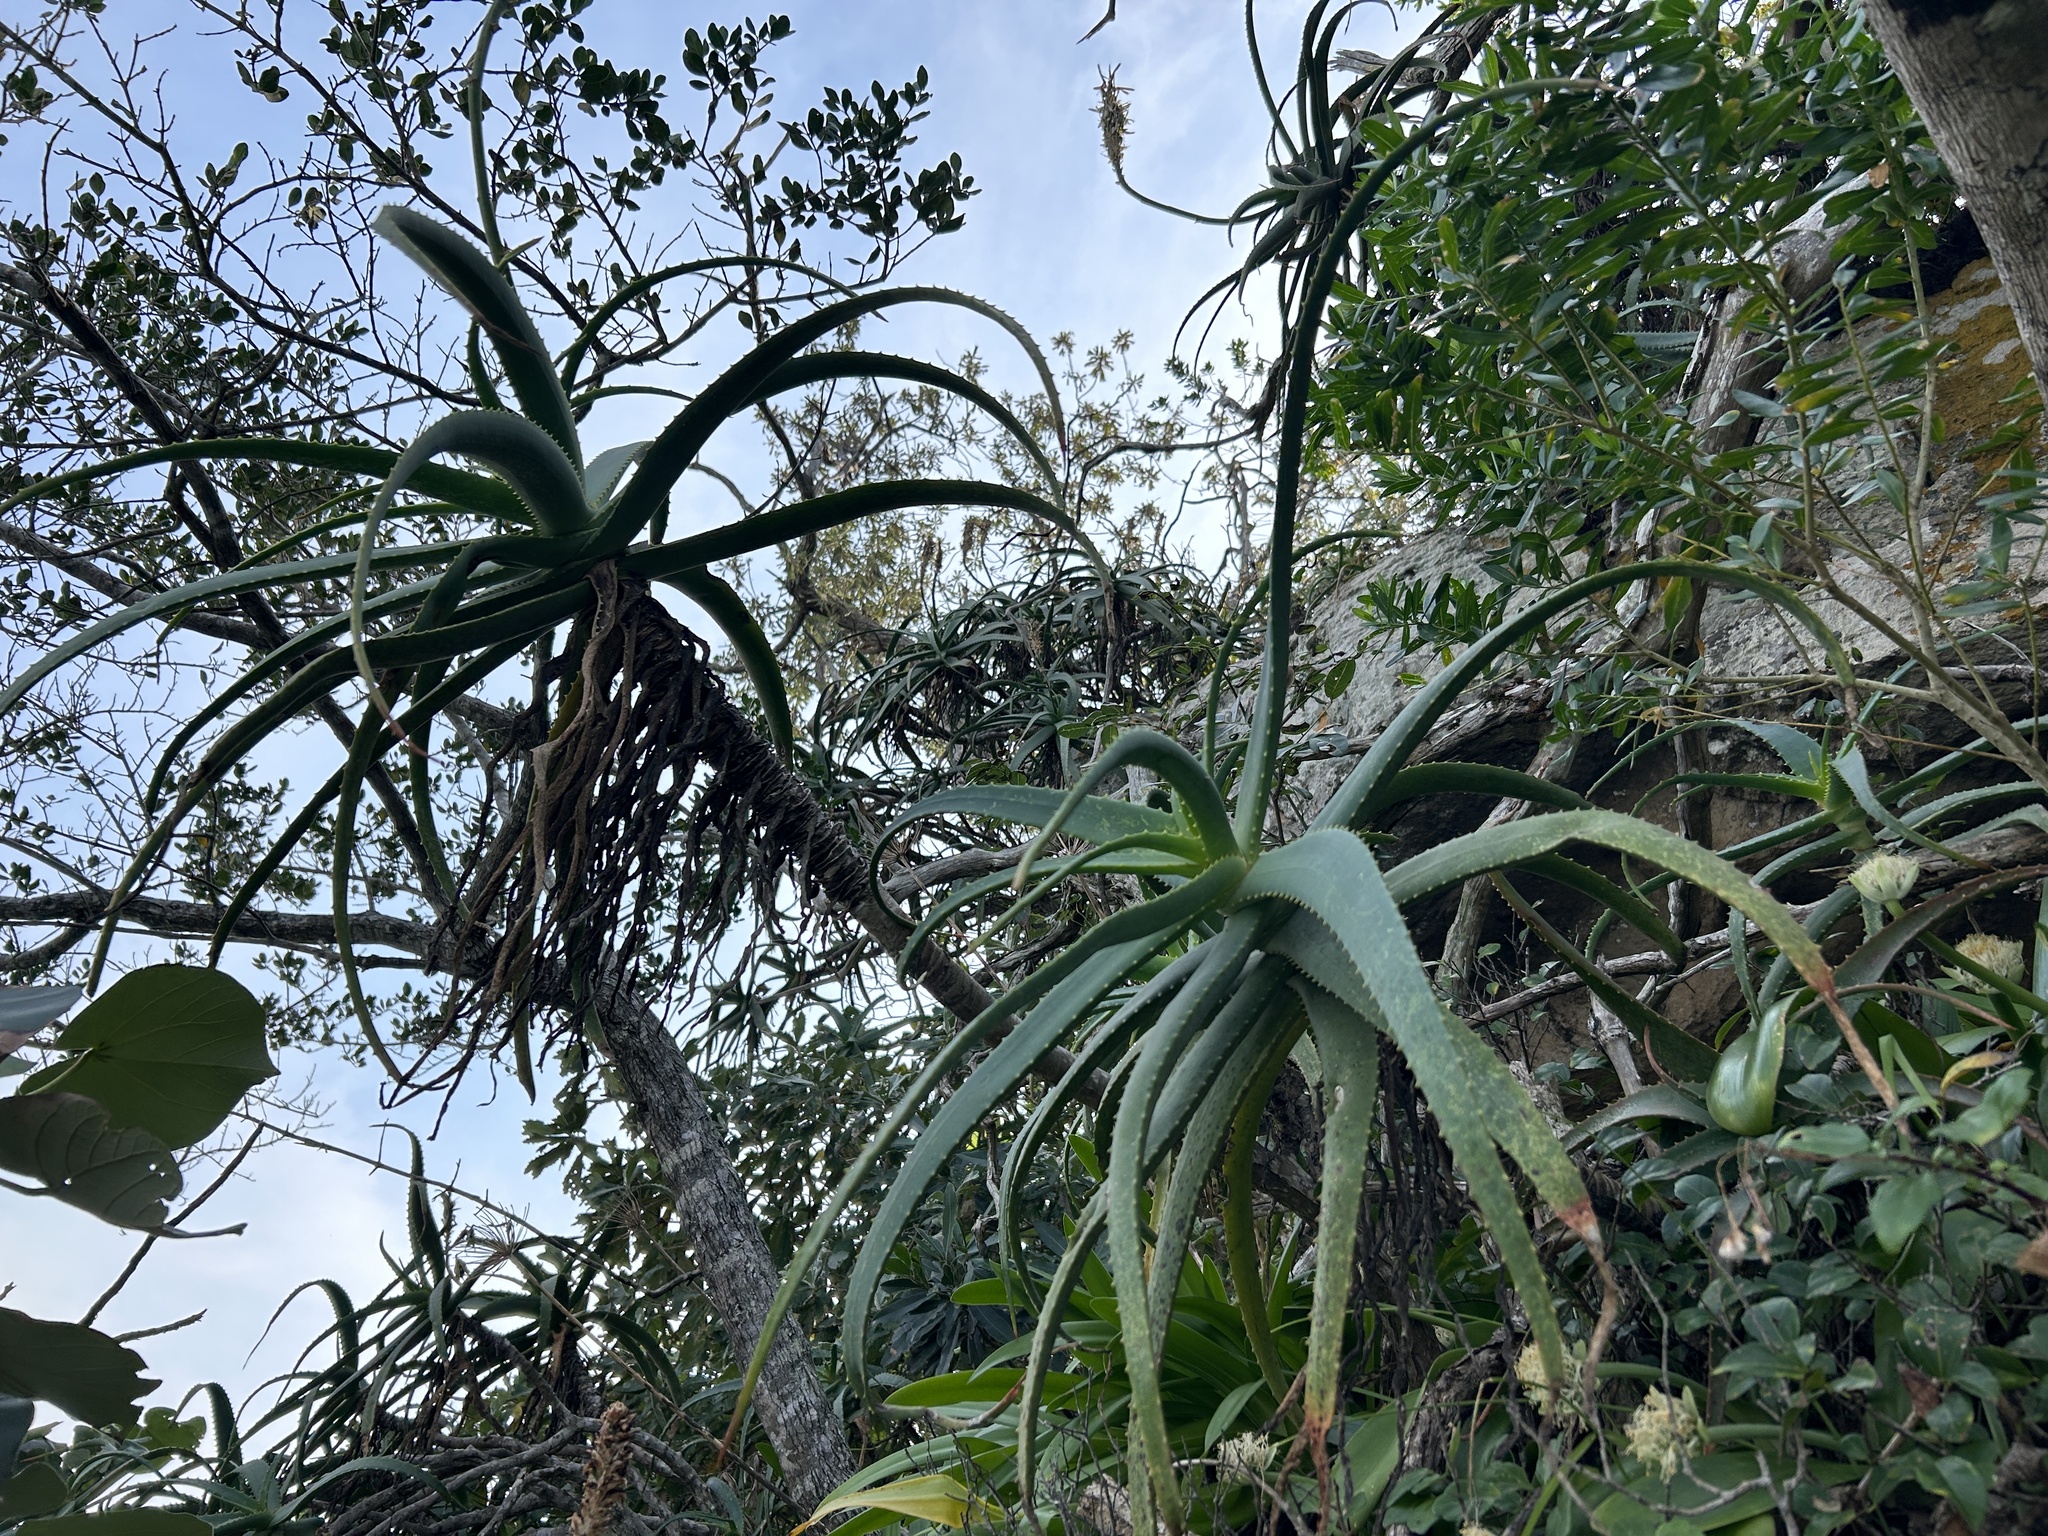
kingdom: Plantae
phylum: Tracheophyta
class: Liliopsida
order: Asparagales
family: Asphodelaceae
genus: Aloe
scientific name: Aloe arborescens
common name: Candelabra aloe
